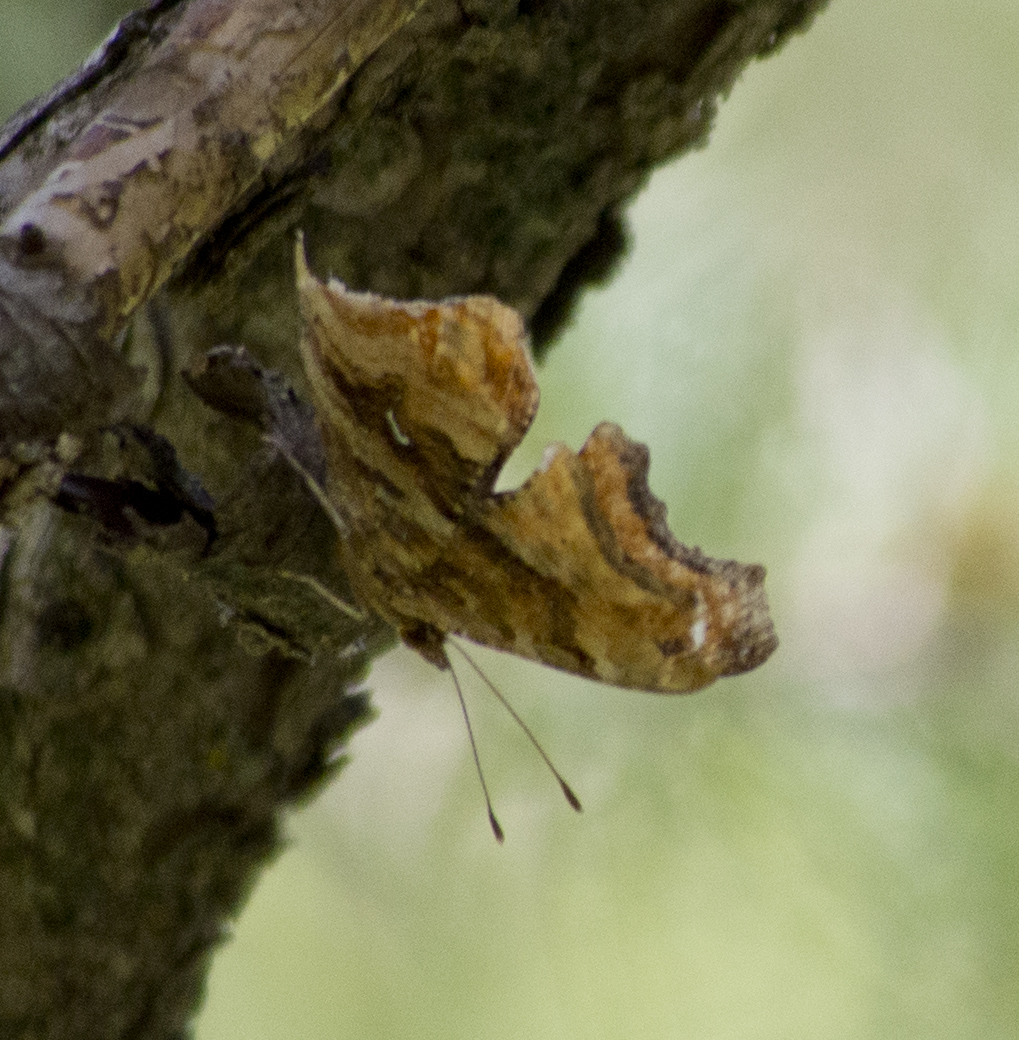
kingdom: Animalia
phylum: Arthropoda
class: Insecta
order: Lepidoptera
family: Nymphalidae
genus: Polygonia
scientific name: Polygonia satyrus
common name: Satyr angle wing
